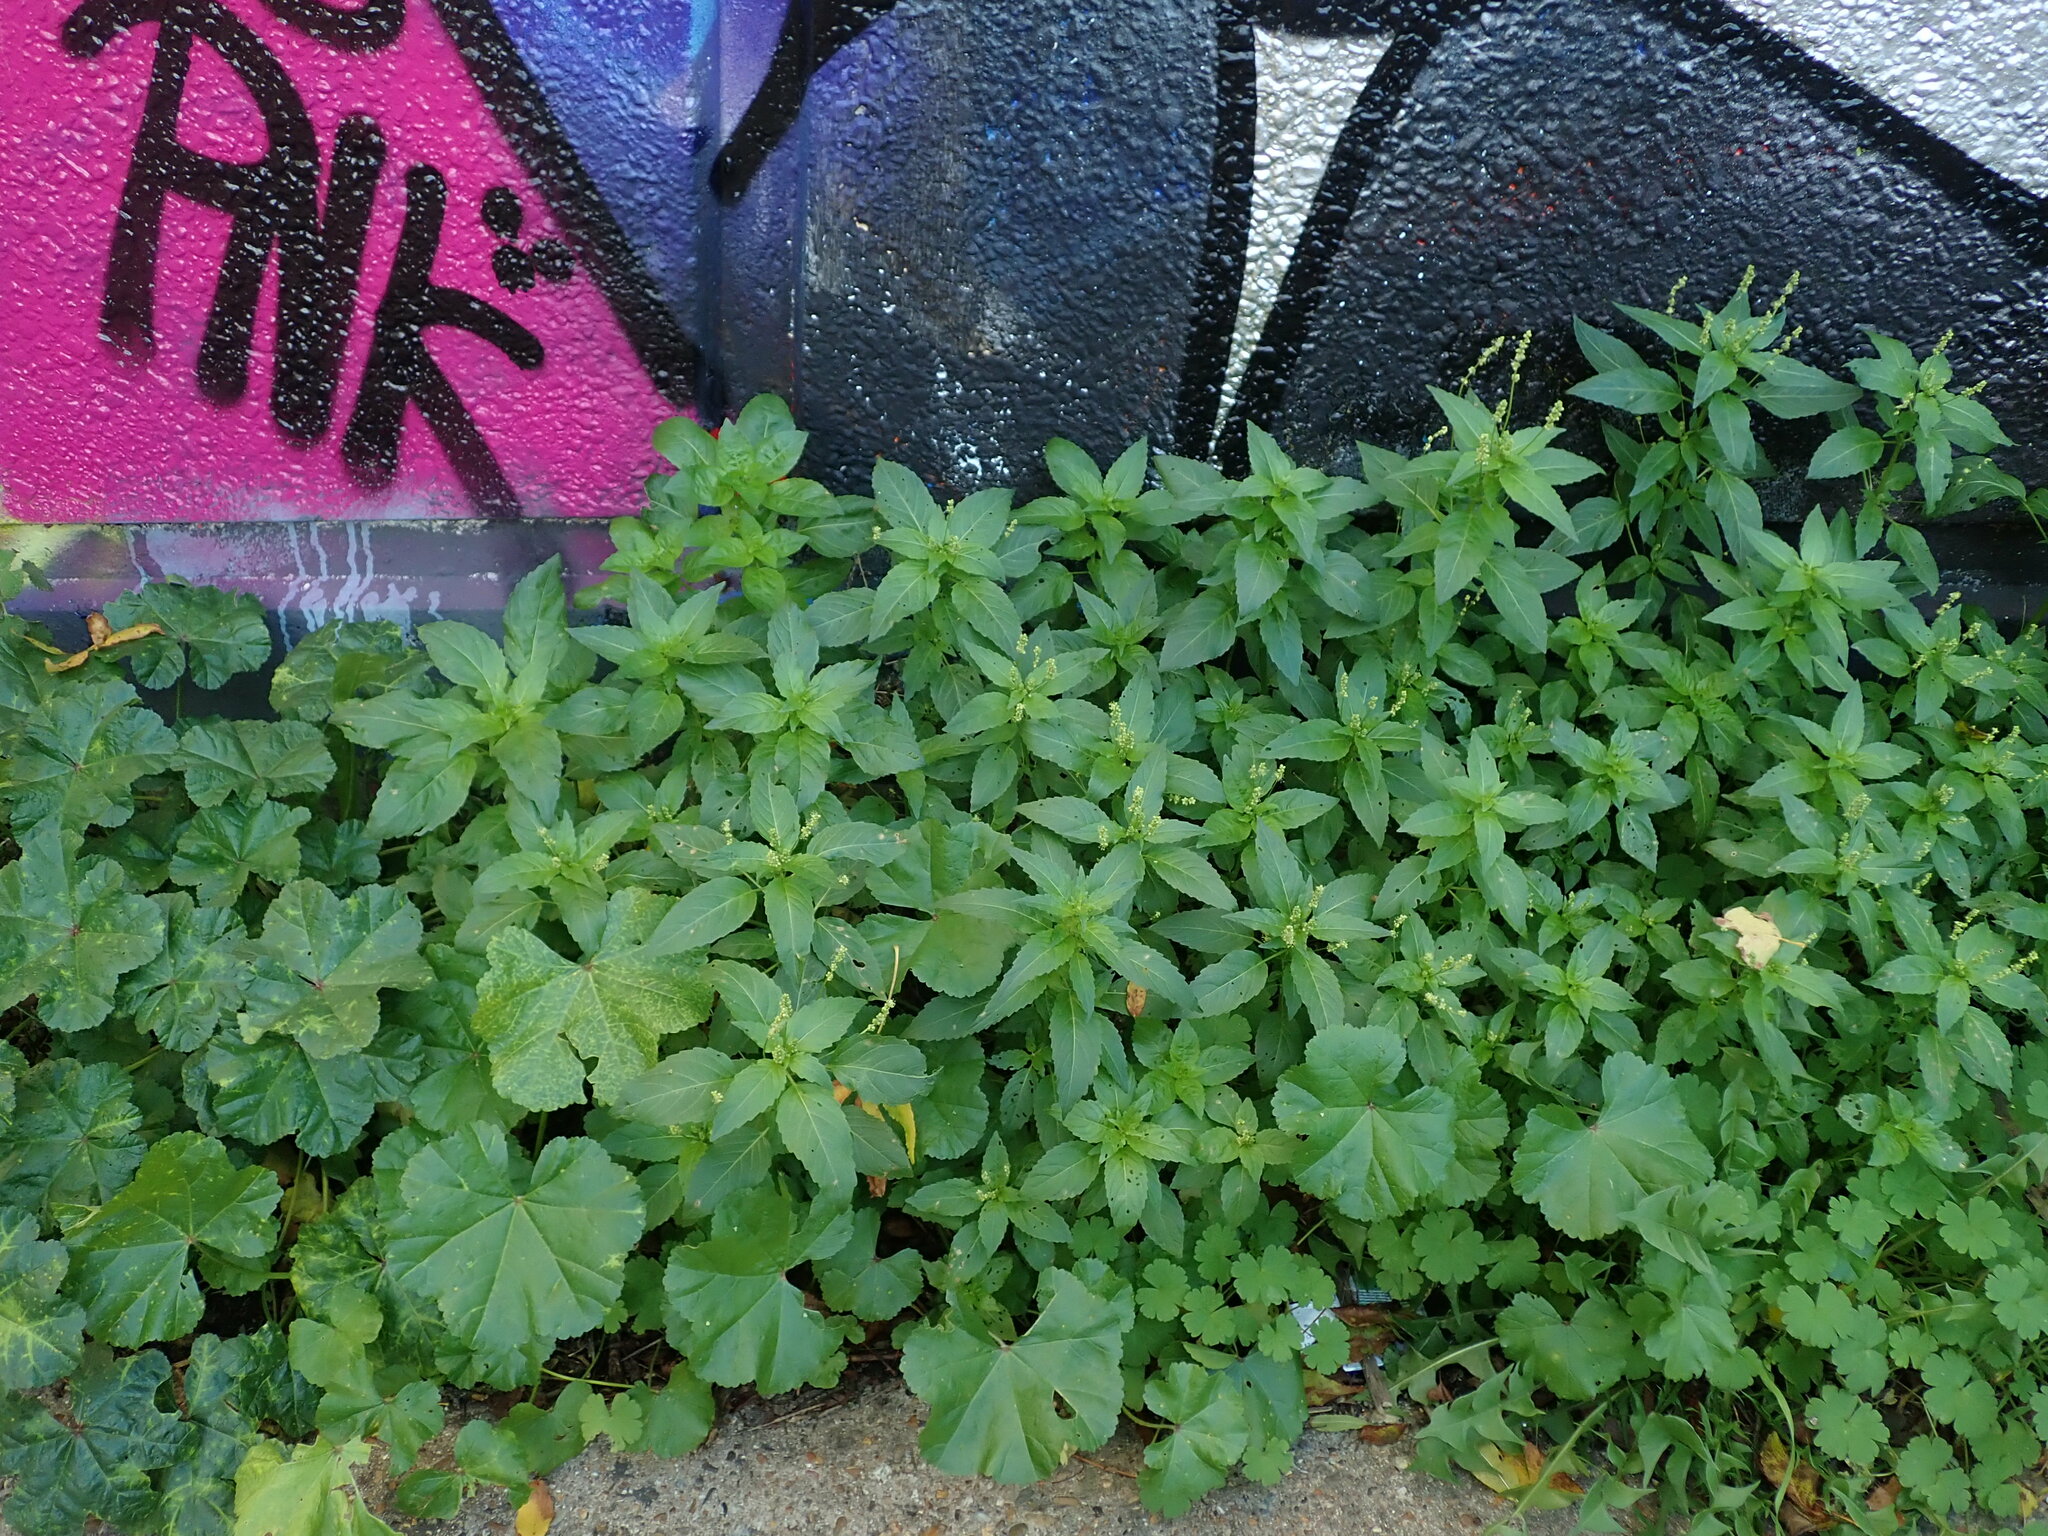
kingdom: Plantae
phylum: Tracheophyta
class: Magnoliopsida
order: Malpighiales
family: Euphorbiaceae
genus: Mercurialis
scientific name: Mercurialis annua
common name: Annual mercury
